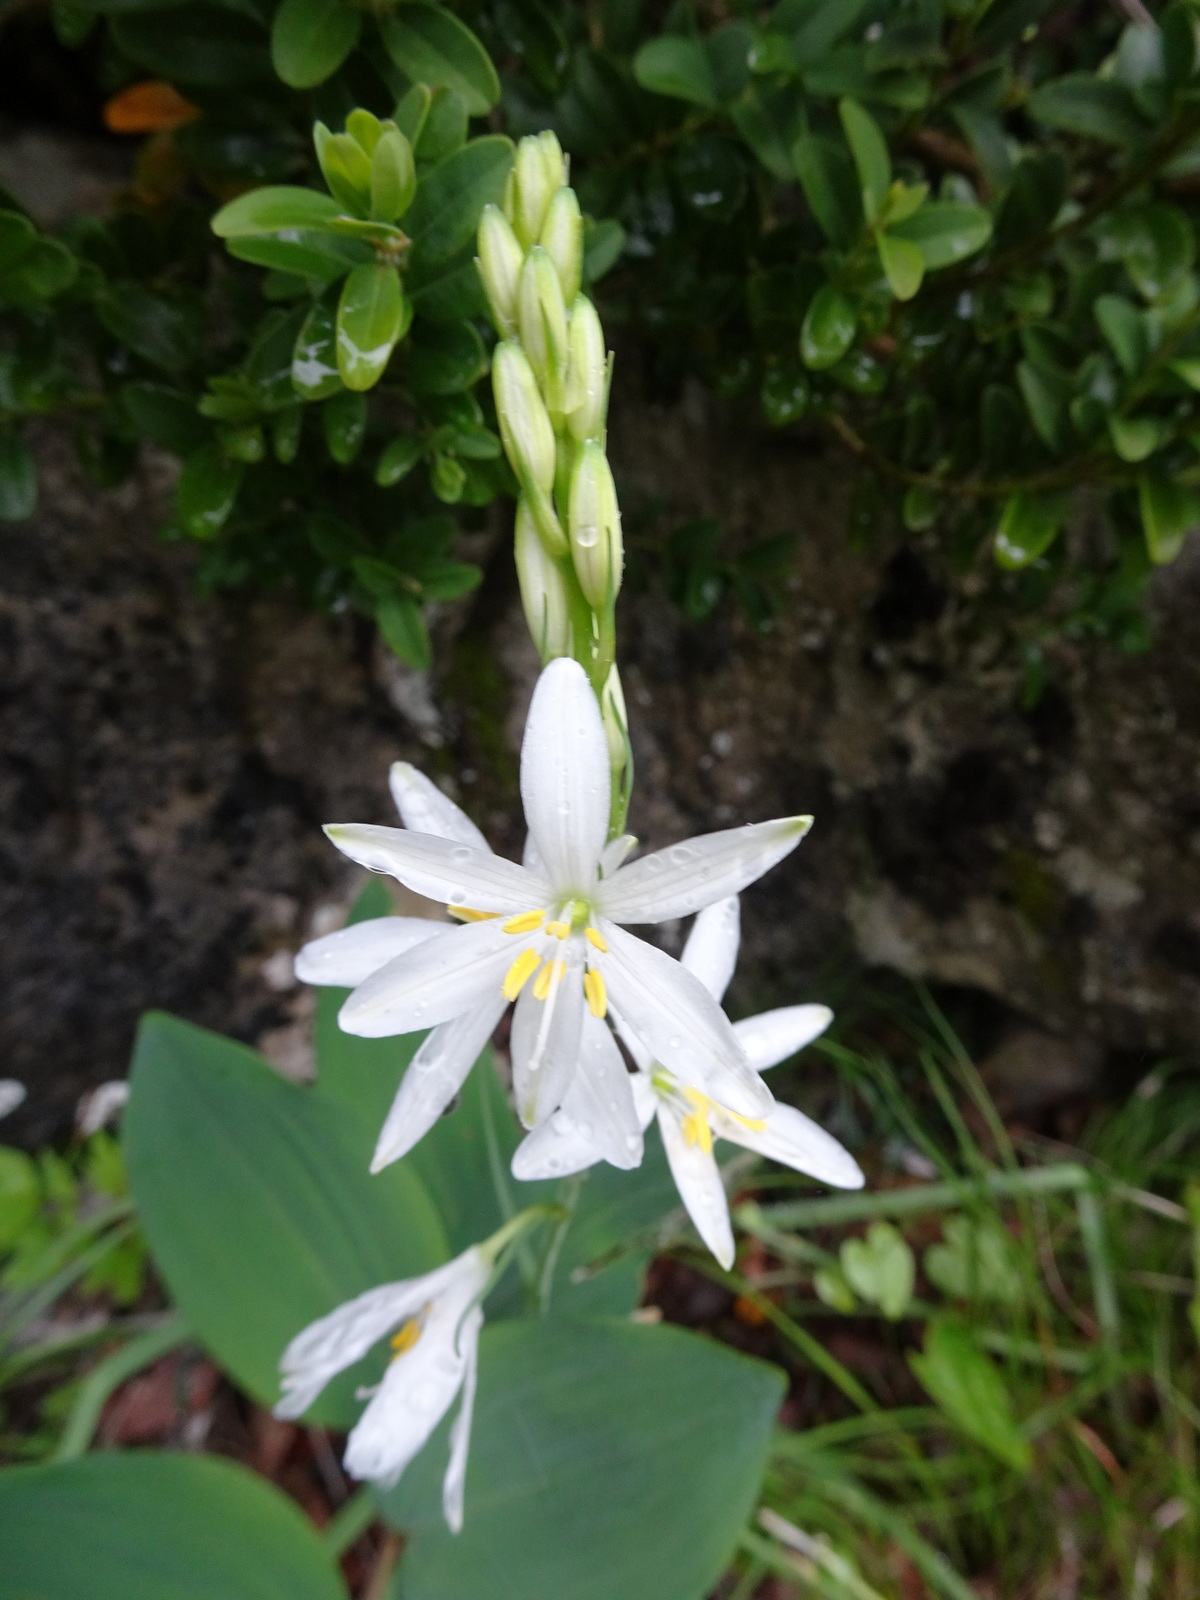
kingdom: Plantae
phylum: Tracheophyta
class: Liliopsida
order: Asparagales
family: Asparagaceae
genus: Anthericum
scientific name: Anthericum liliago
